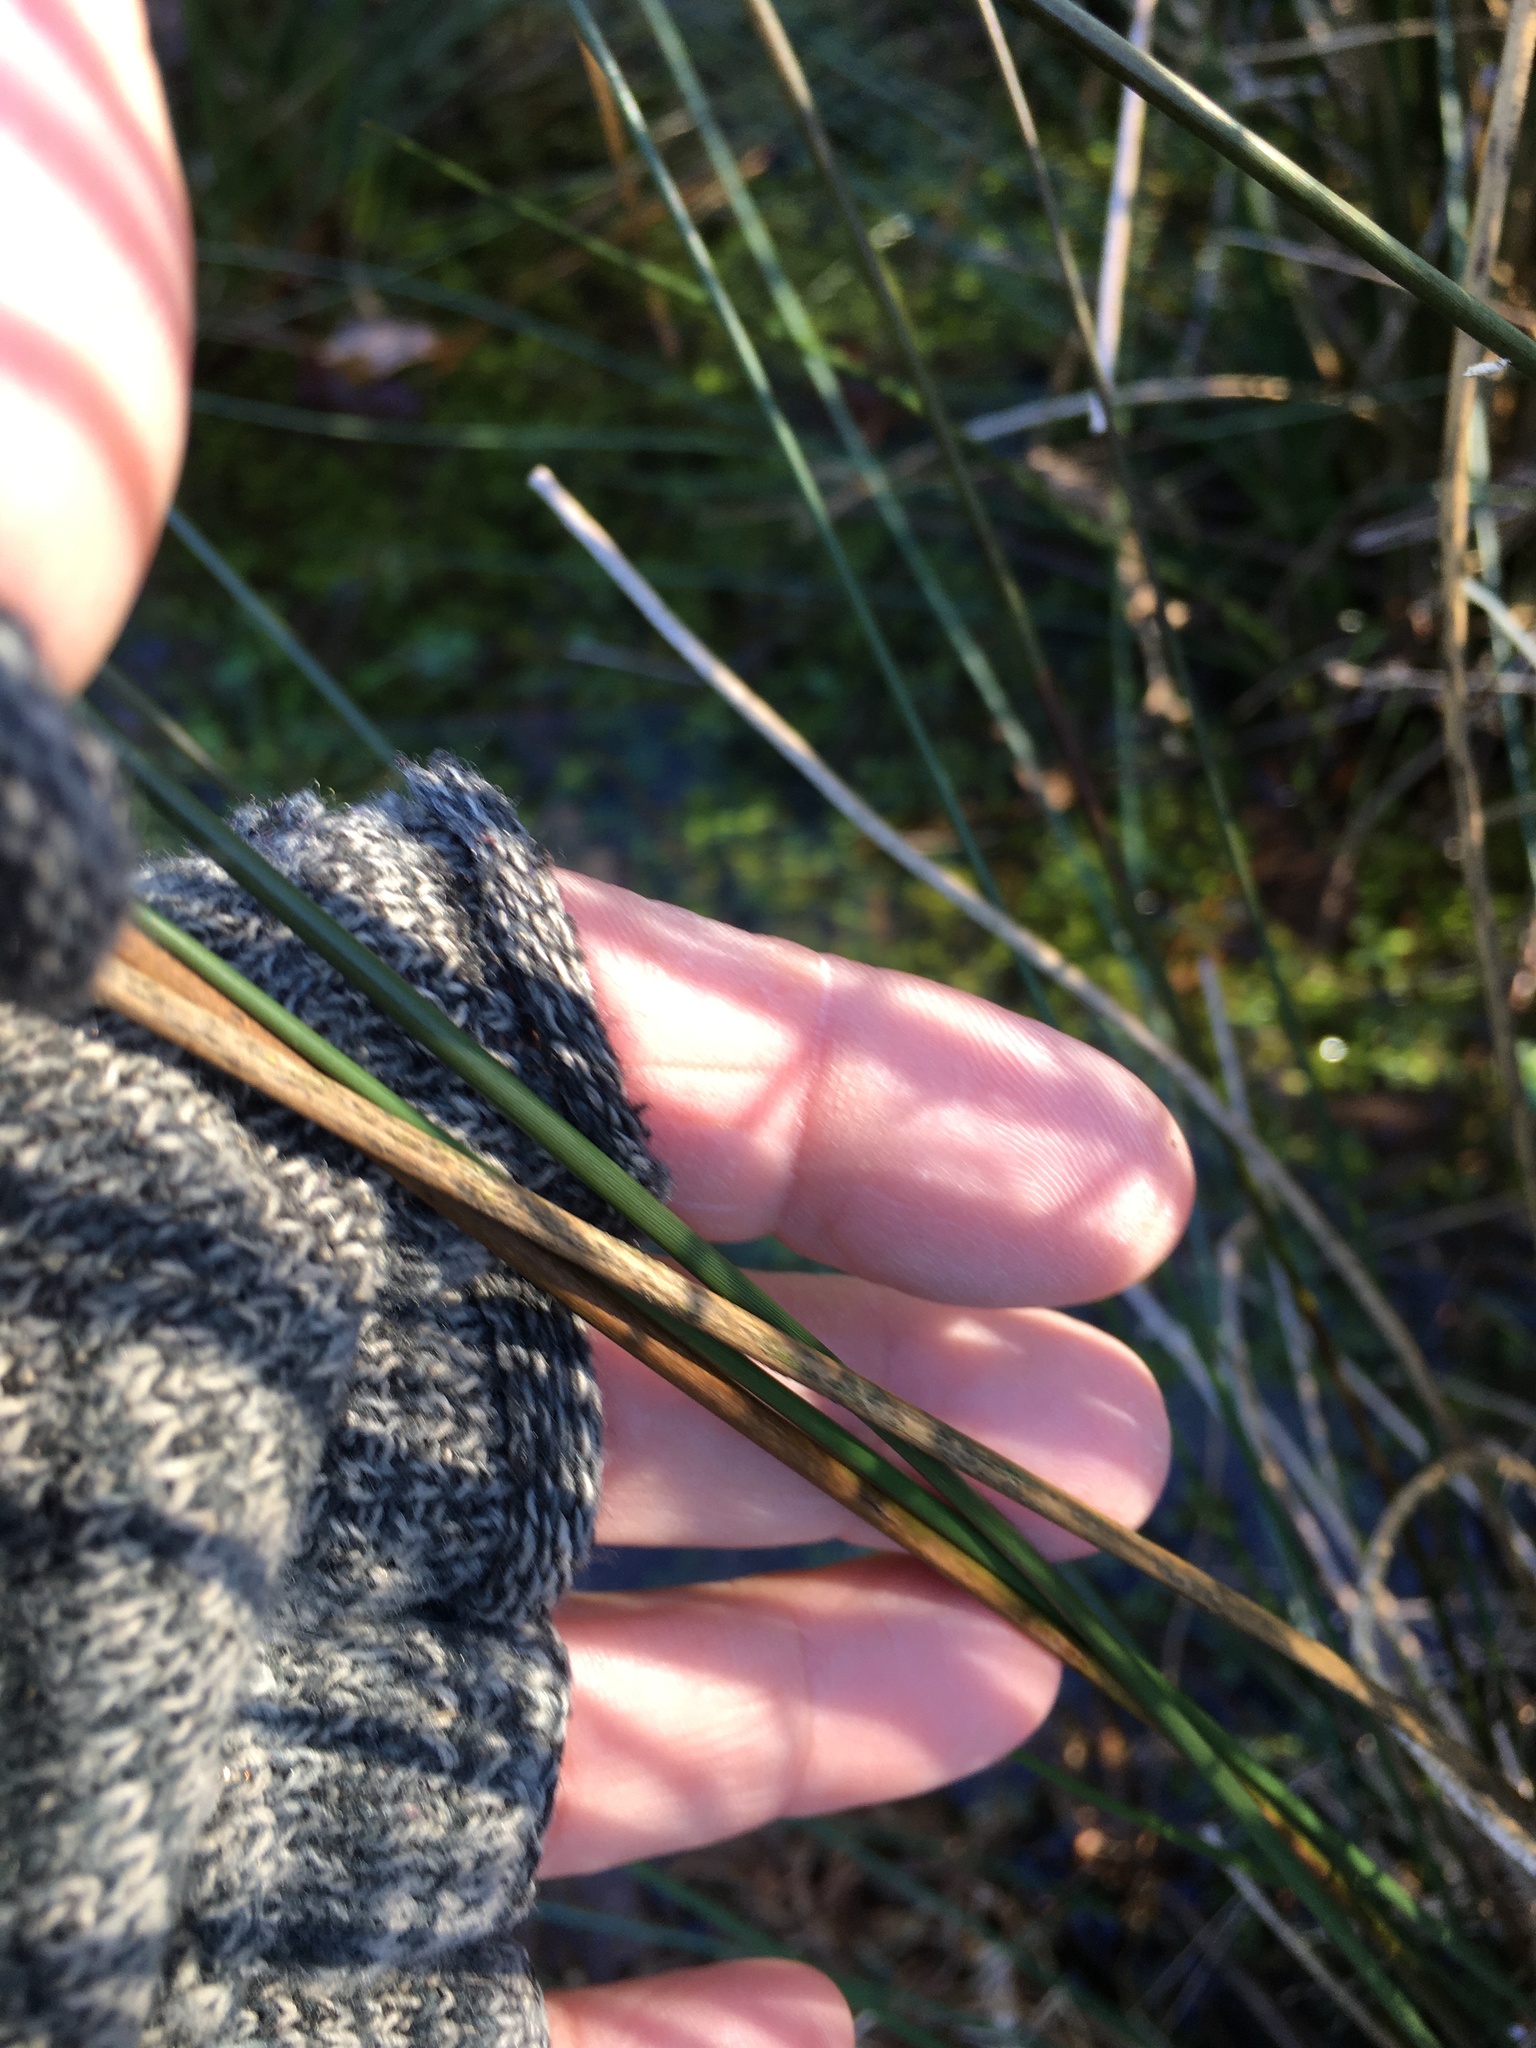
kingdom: Plantae
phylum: Tracheophyta
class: Liliopsida
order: Poales
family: Juncaceae
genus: Juncus
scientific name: Juncus effusus
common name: Soft rush
